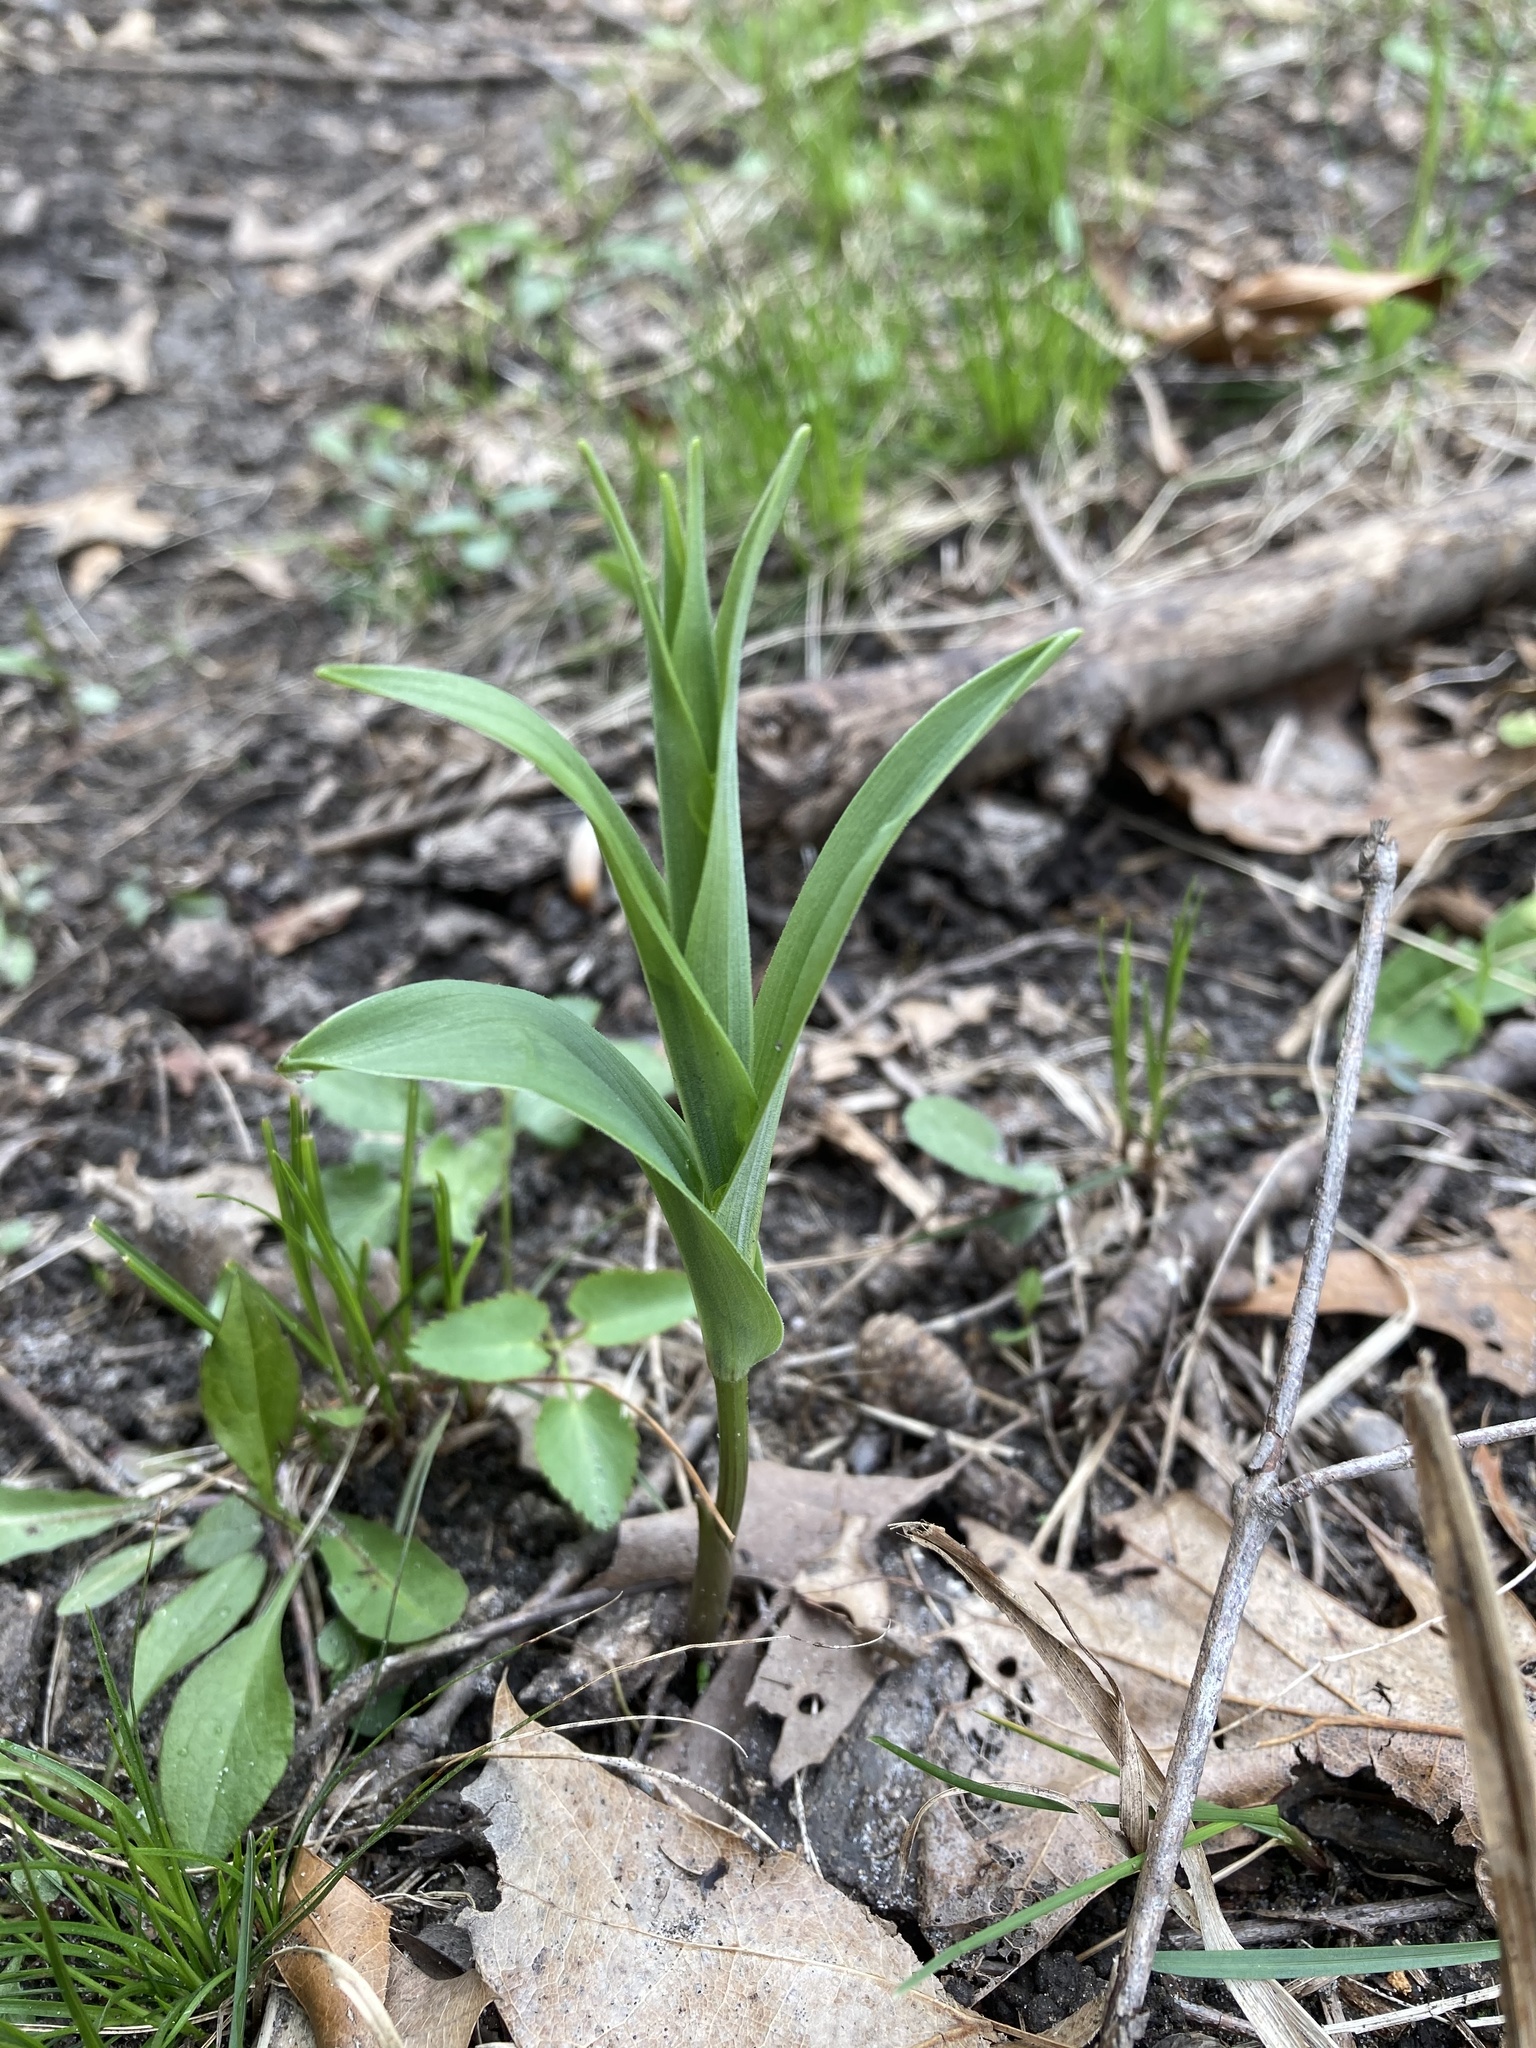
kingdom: Plantae
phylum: Tracheophyta
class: Liliopsida
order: Asparagales
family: Asparagaceae
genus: Maianthemum
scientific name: Maianthemum stellatum
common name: Little false solomon's seal
